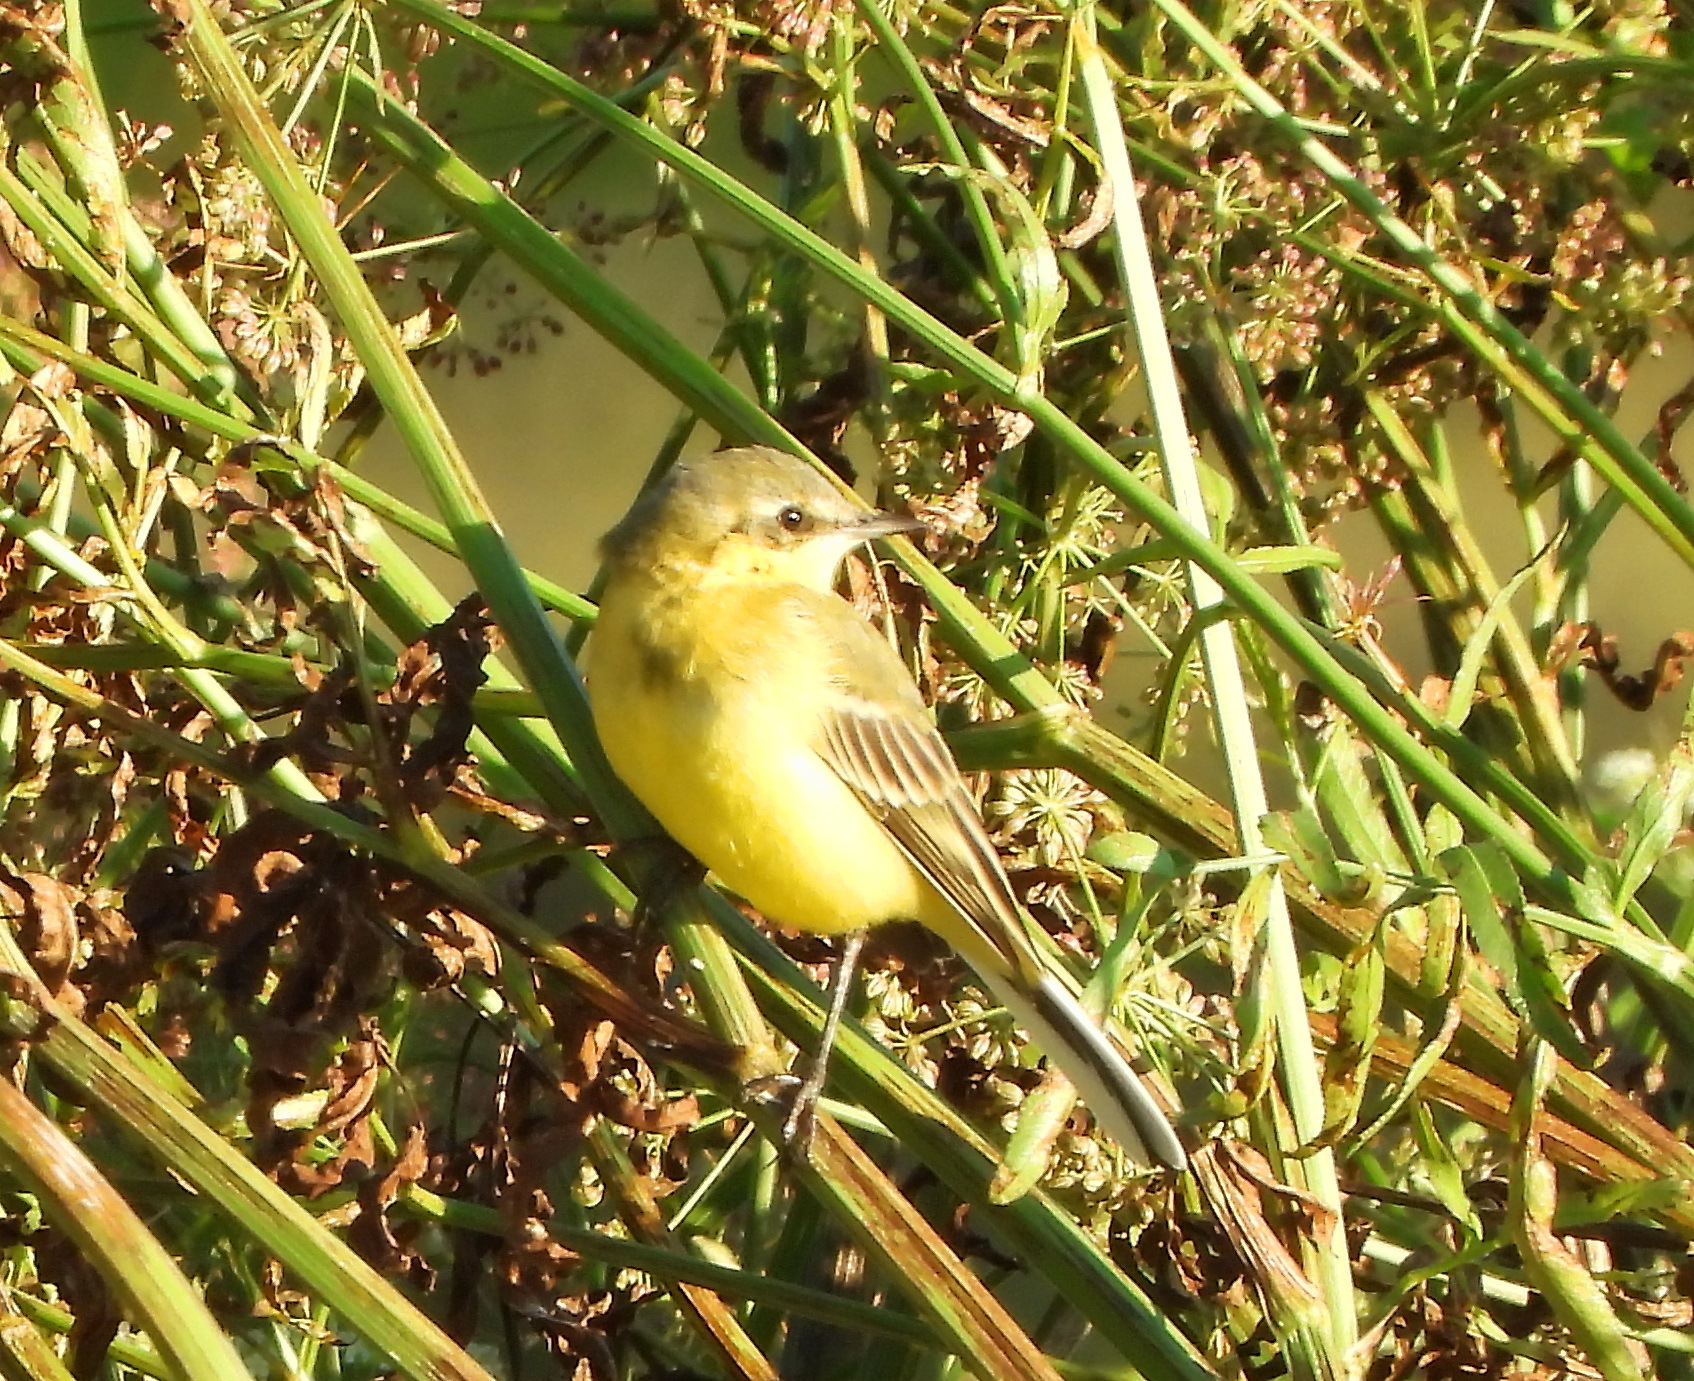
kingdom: Animalia
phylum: Chordata
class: Aves
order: Passeriformes
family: Motacillidae
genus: Motacilla
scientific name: Motacilla flava
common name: Western yellow wagtail
